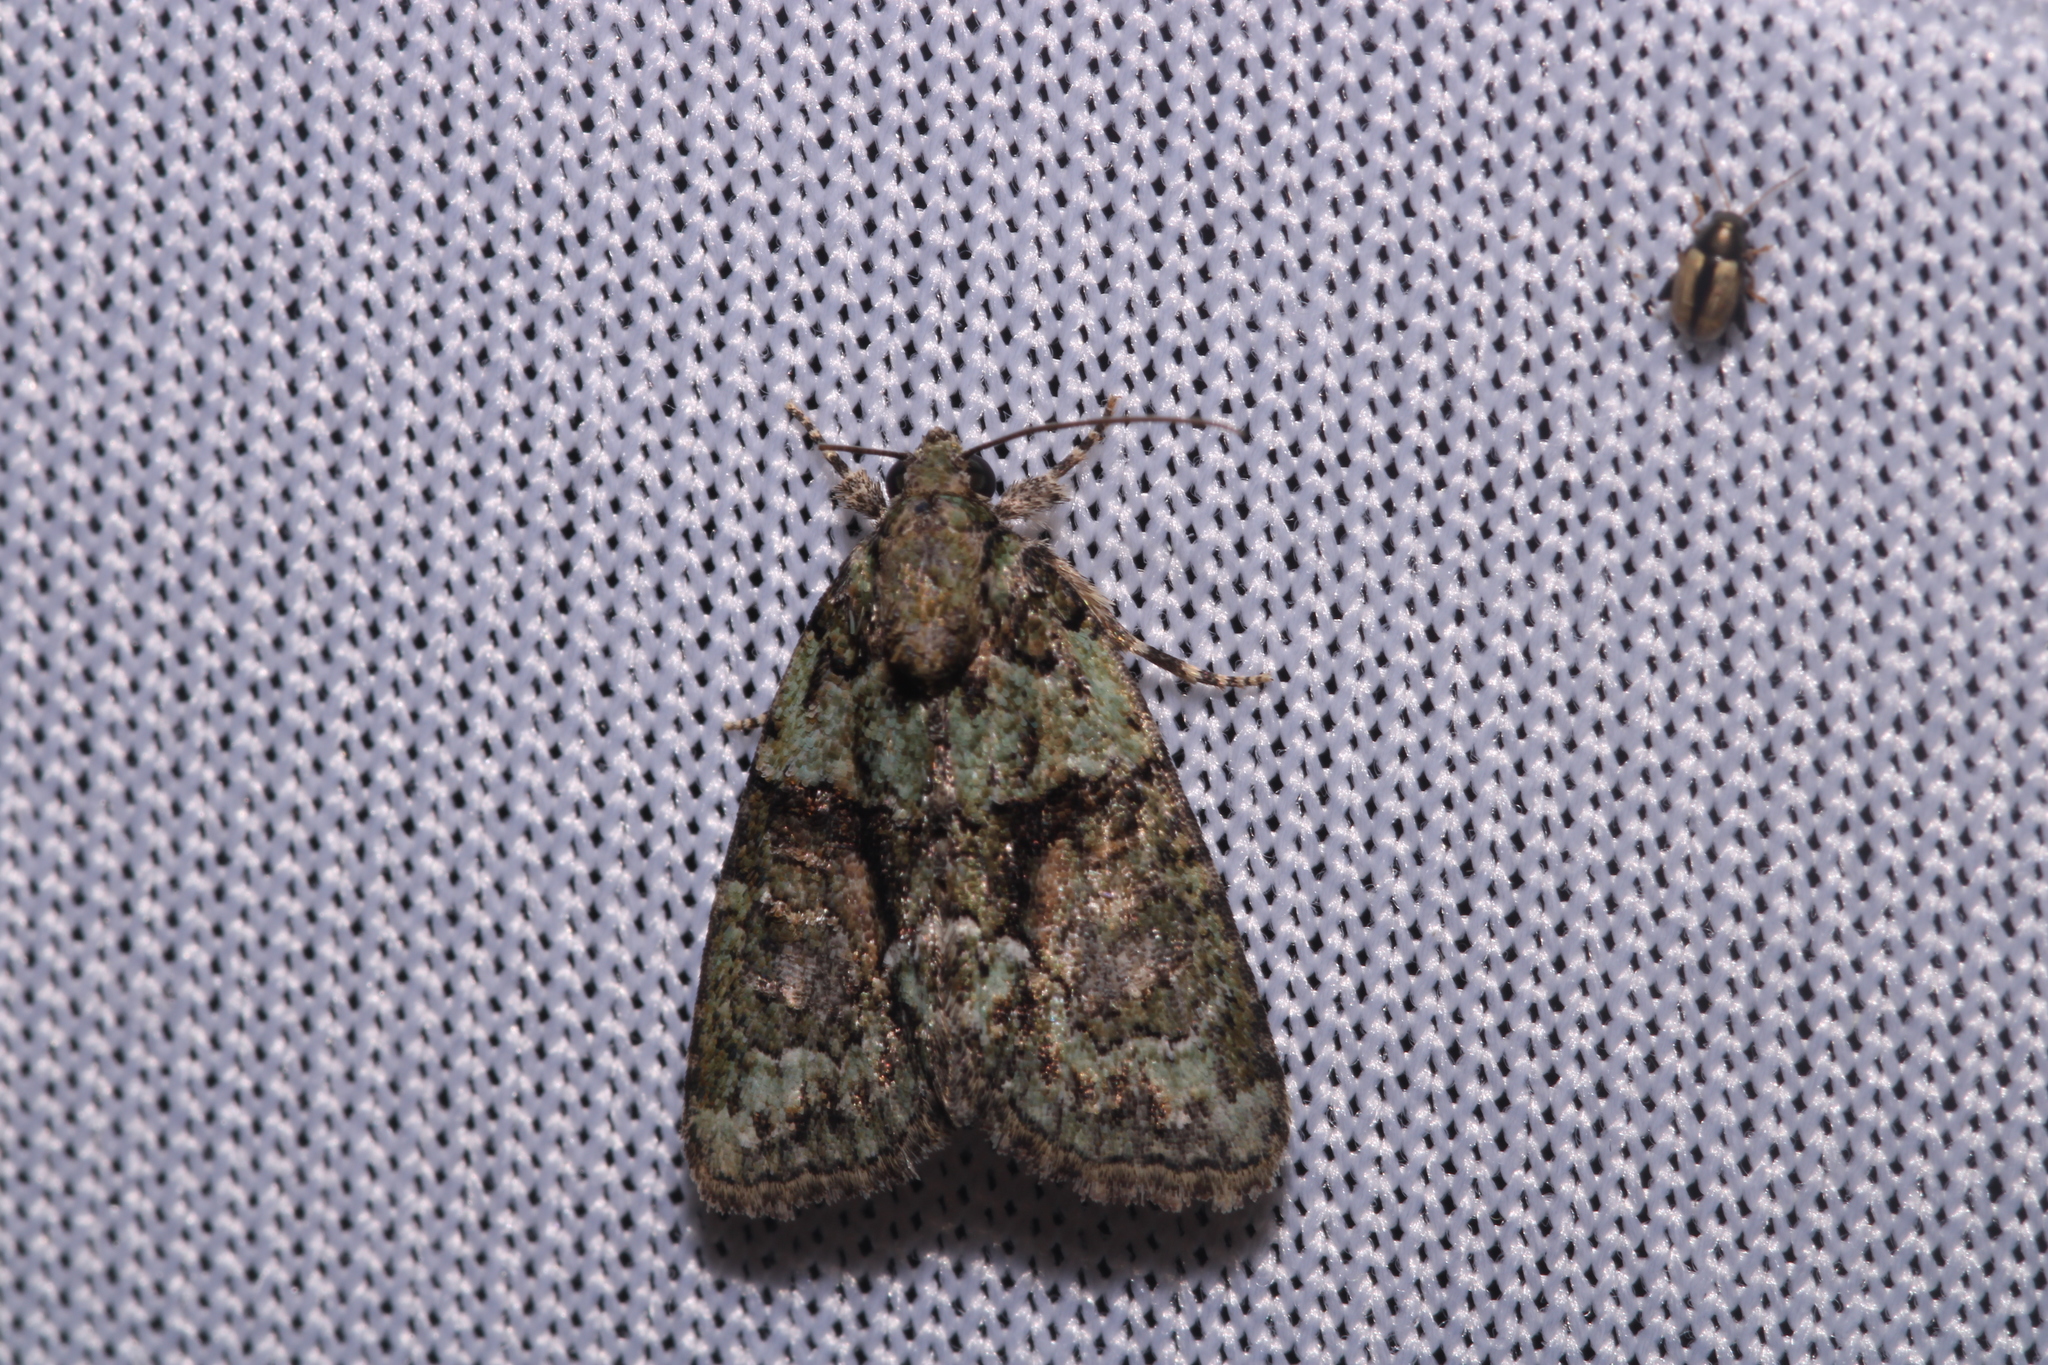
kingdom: Animalia
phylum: Arthropoda
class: Insecta
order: Lepidoptera
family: Noctuidae
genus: Cryphia
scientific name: Cryphia algae
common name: Tree-lichen beauty
